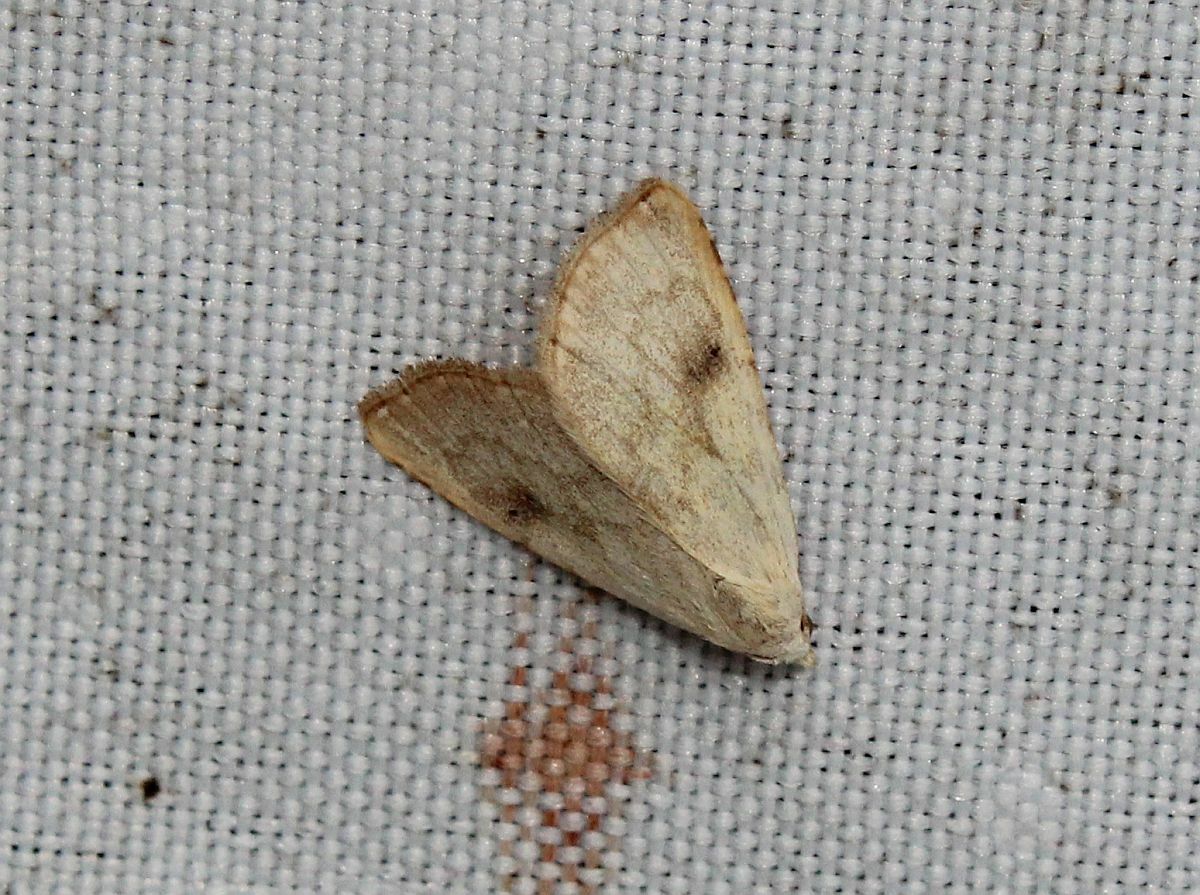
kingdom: Animalia
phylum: Arthropoda
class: Insecta
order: Lepidoptera
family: Erebidae
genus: Rivula
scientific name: Rivula sericealis
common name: Straw dot
